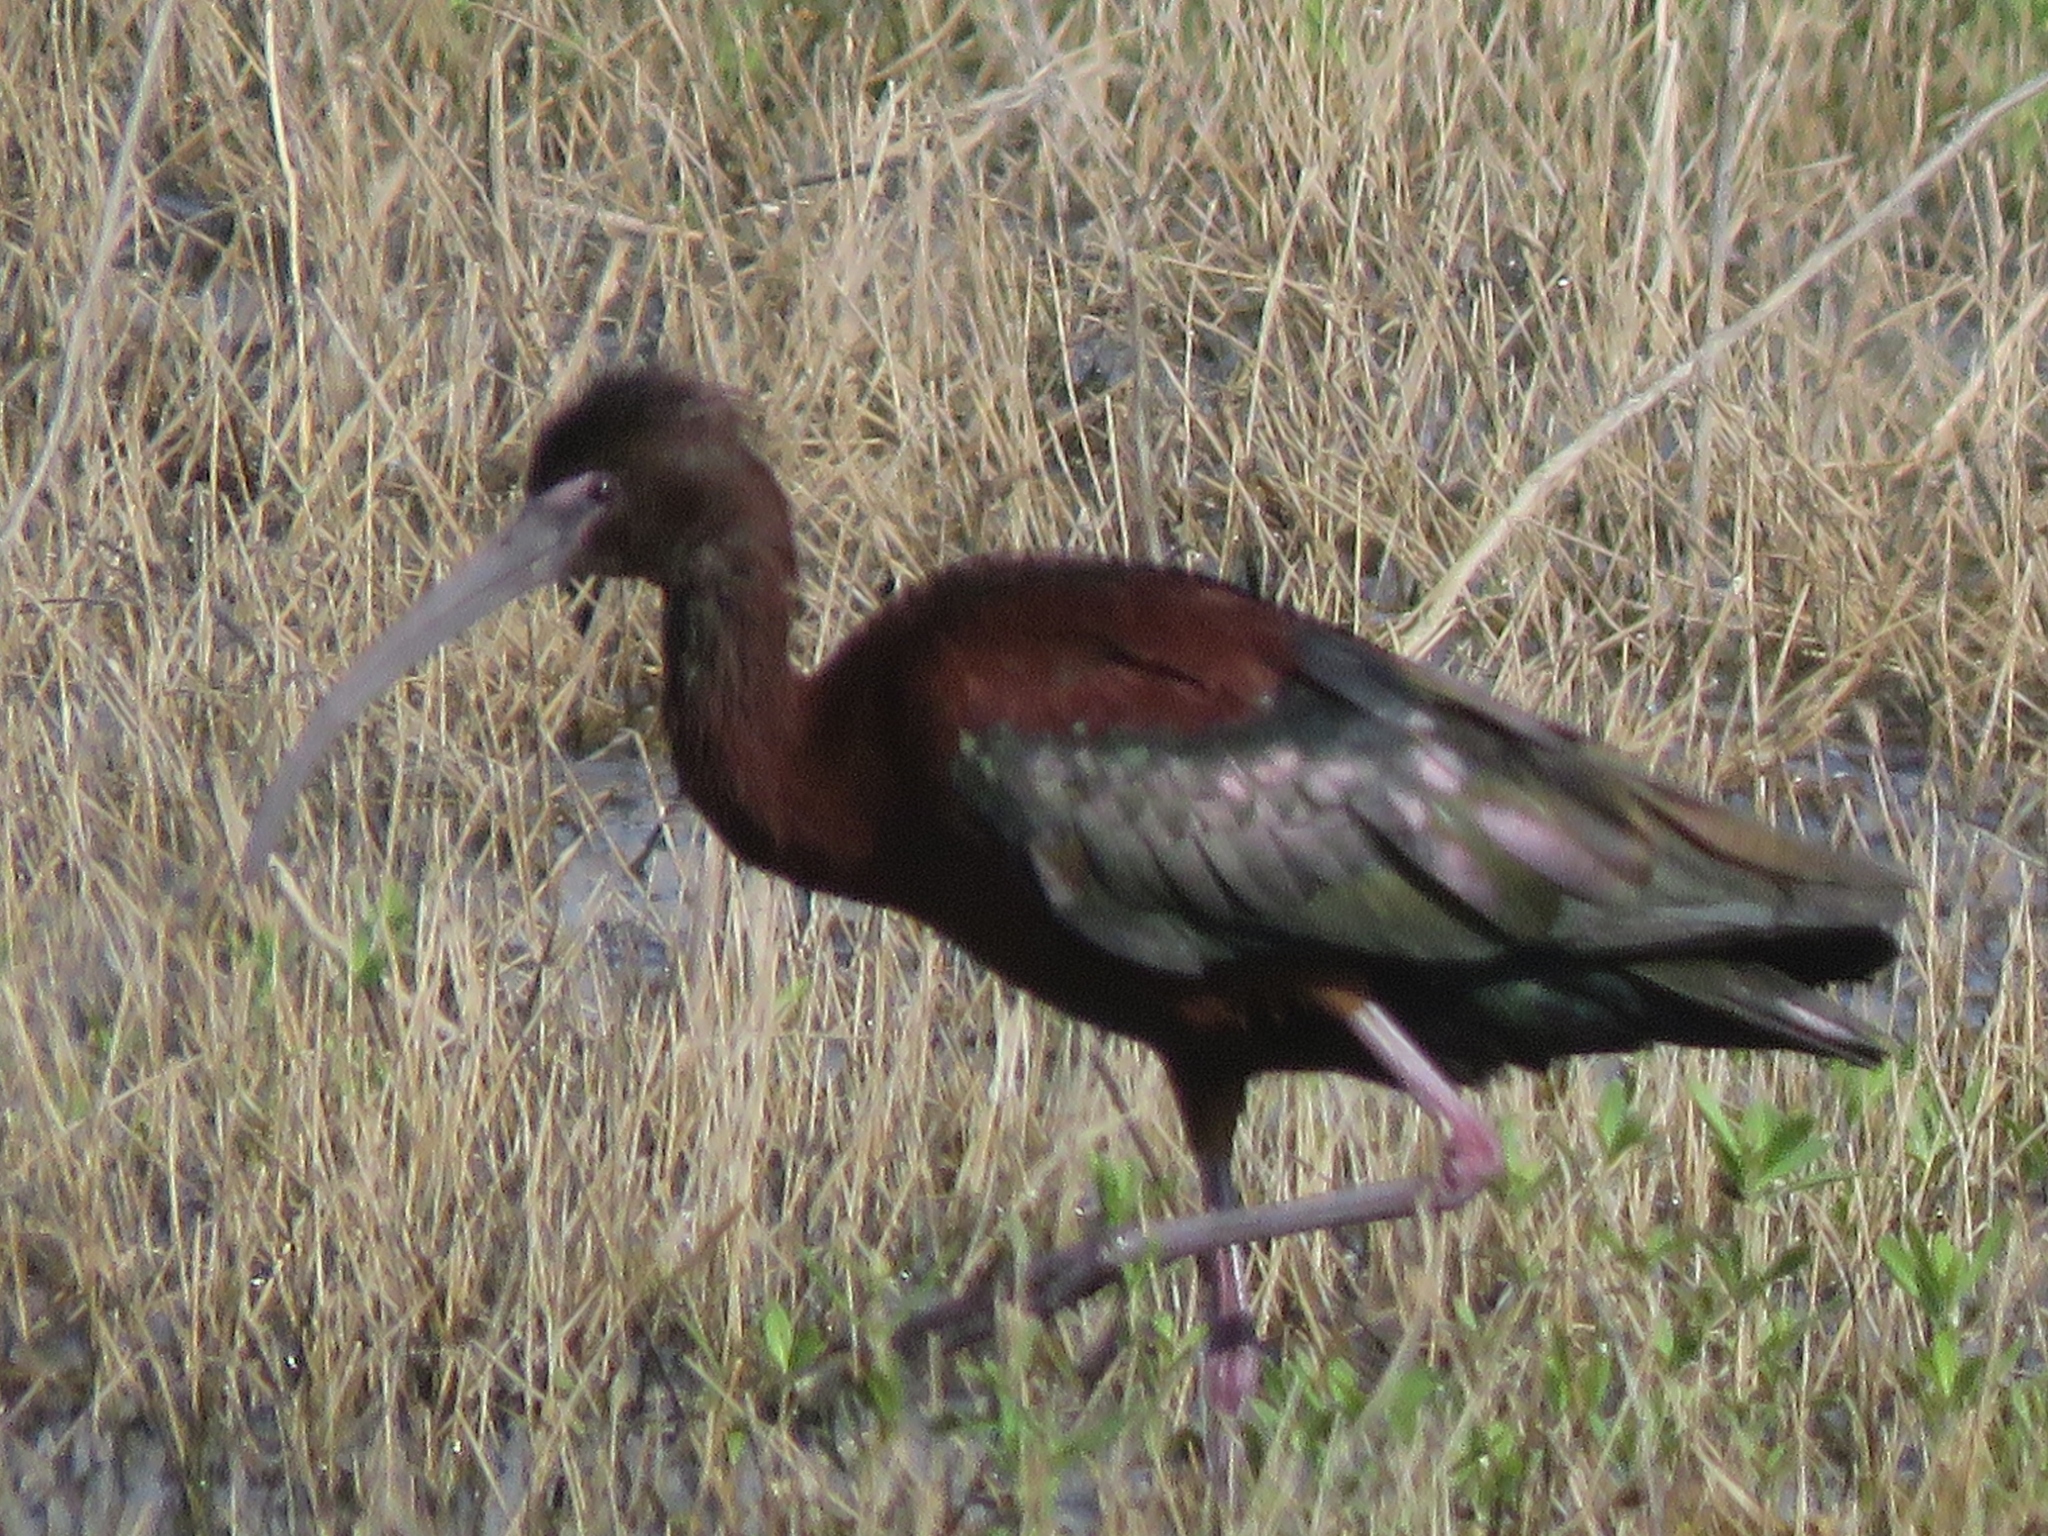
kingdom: Animalia
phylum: Chordata
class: Aves
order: Pelecaniformes
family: Threskiornithidae
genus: Plegadis
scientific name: Plegadis
